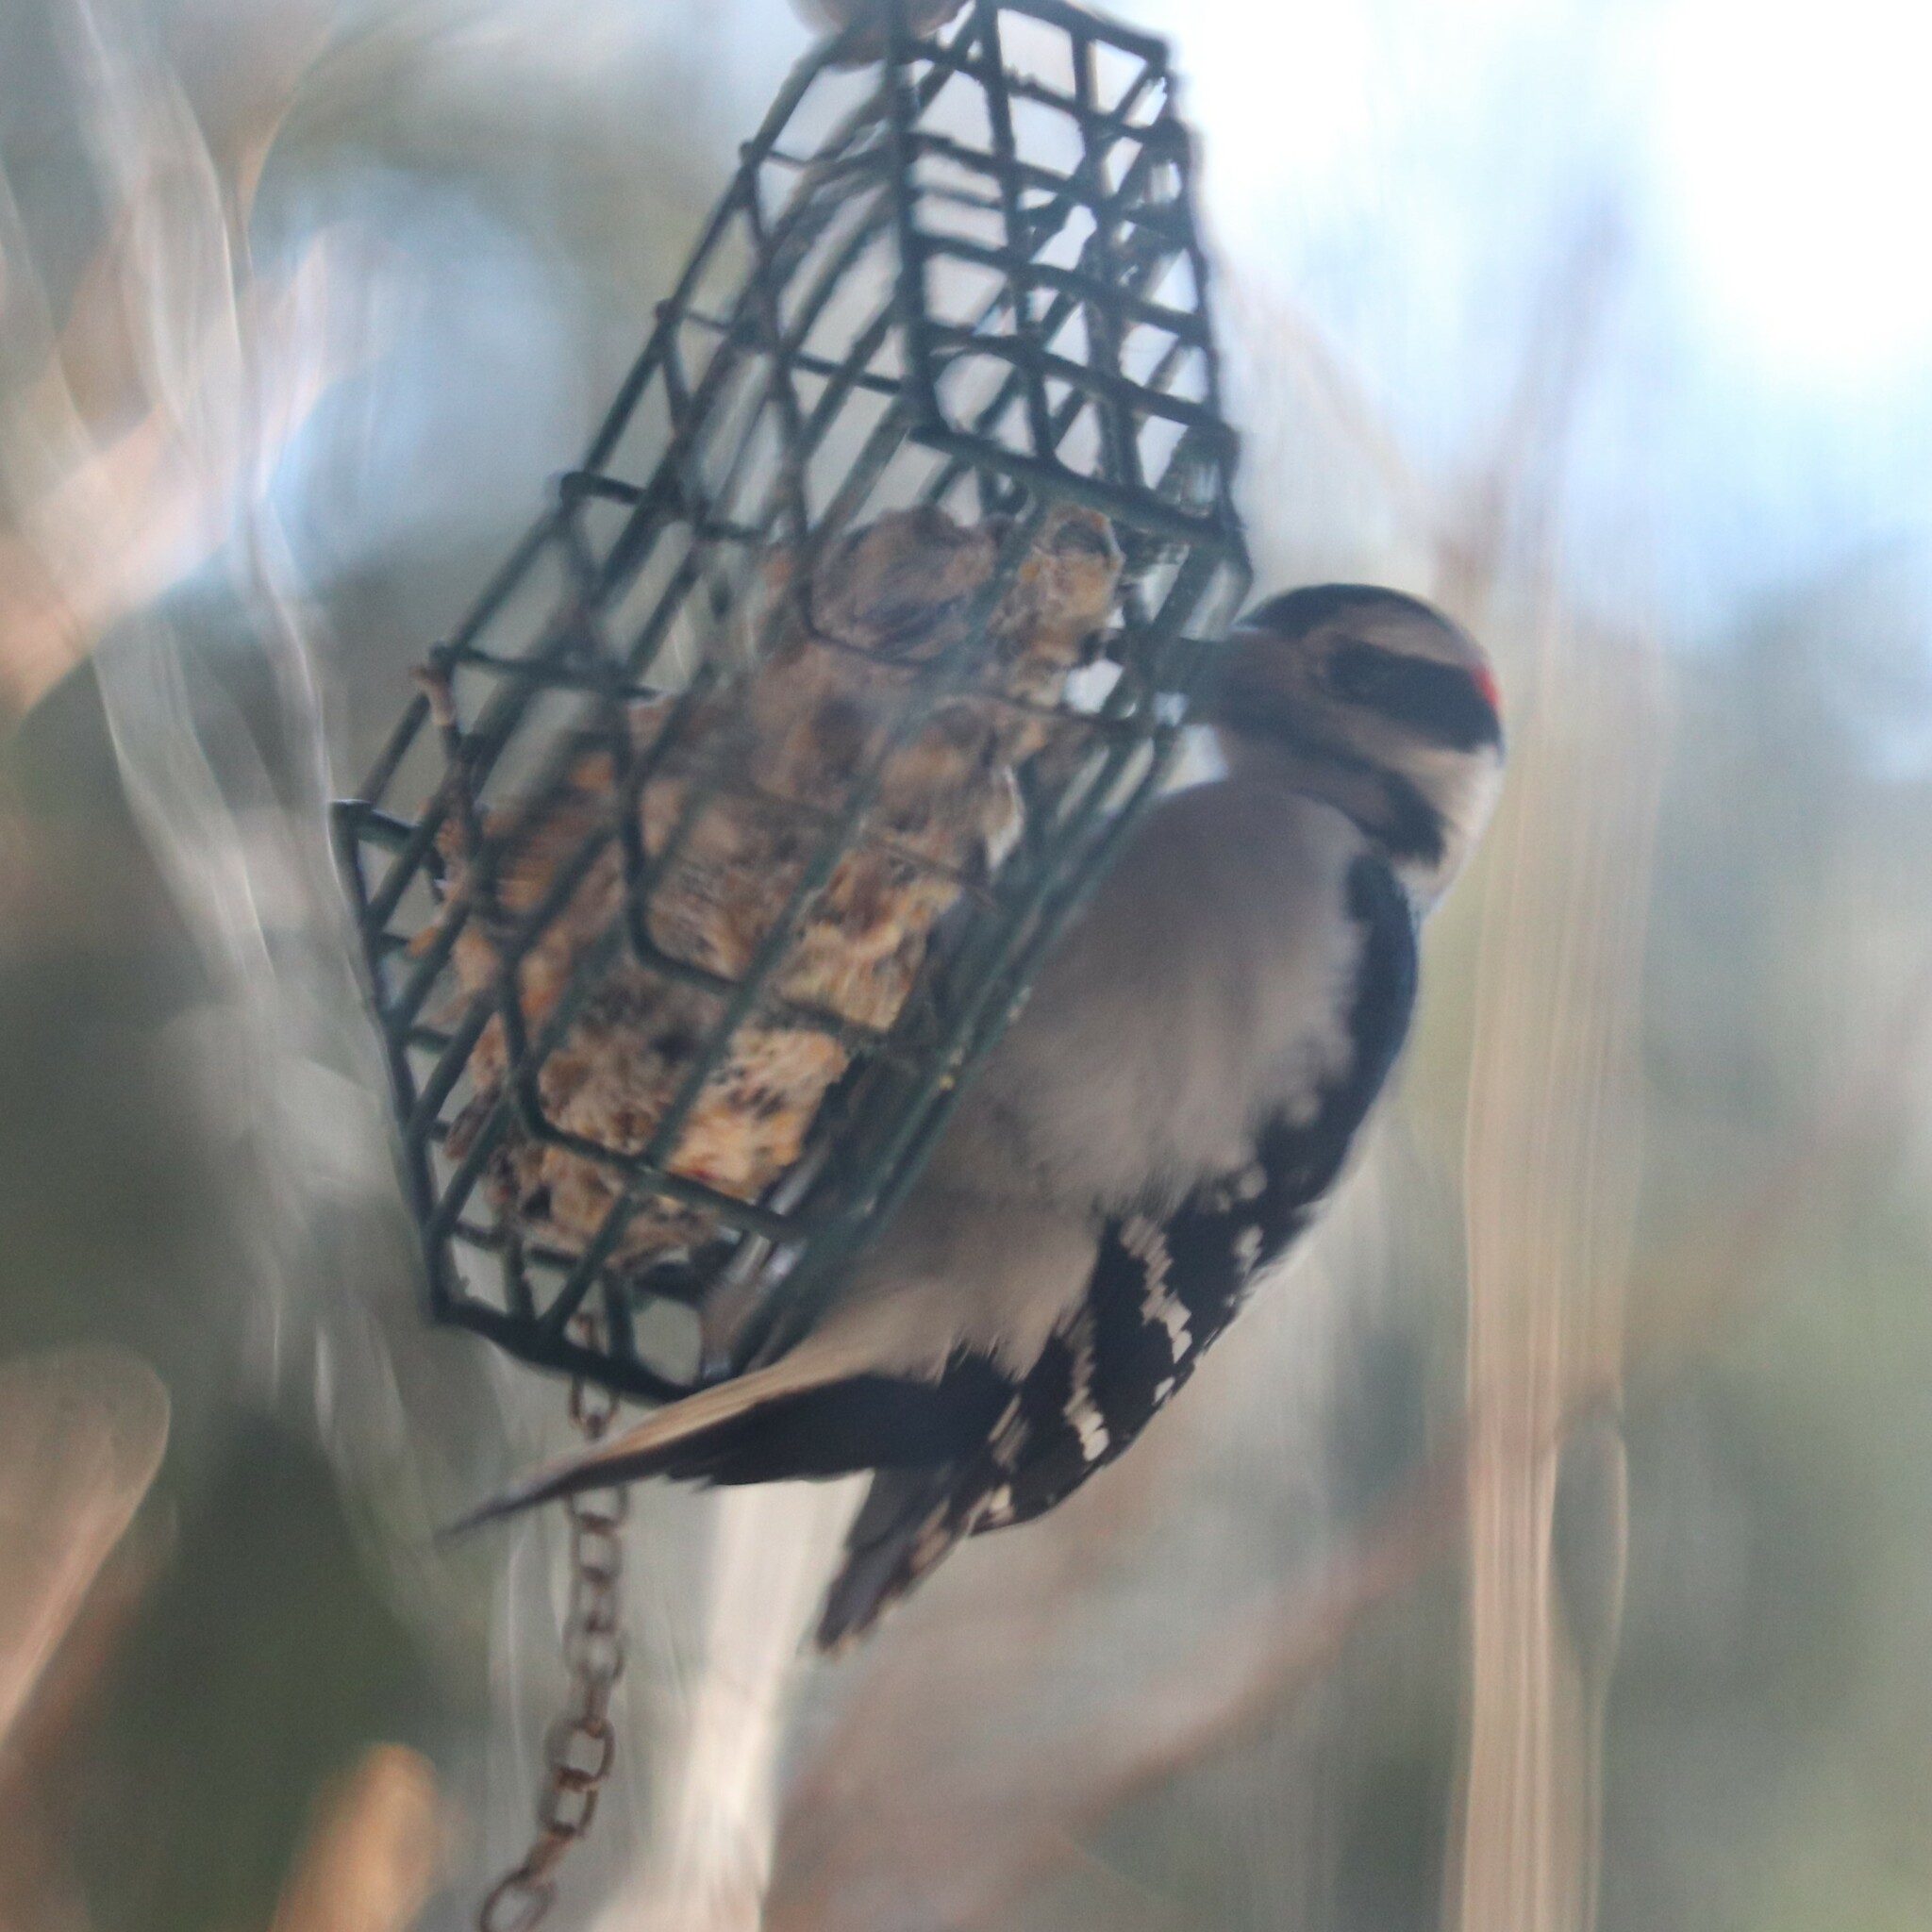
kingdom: Animalia
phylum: Chordata
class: Aves
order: Piciformes
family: Picidae
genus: Leuconotopicus
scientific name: Leuconotopicus villosus
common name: Hairy woodpecker
